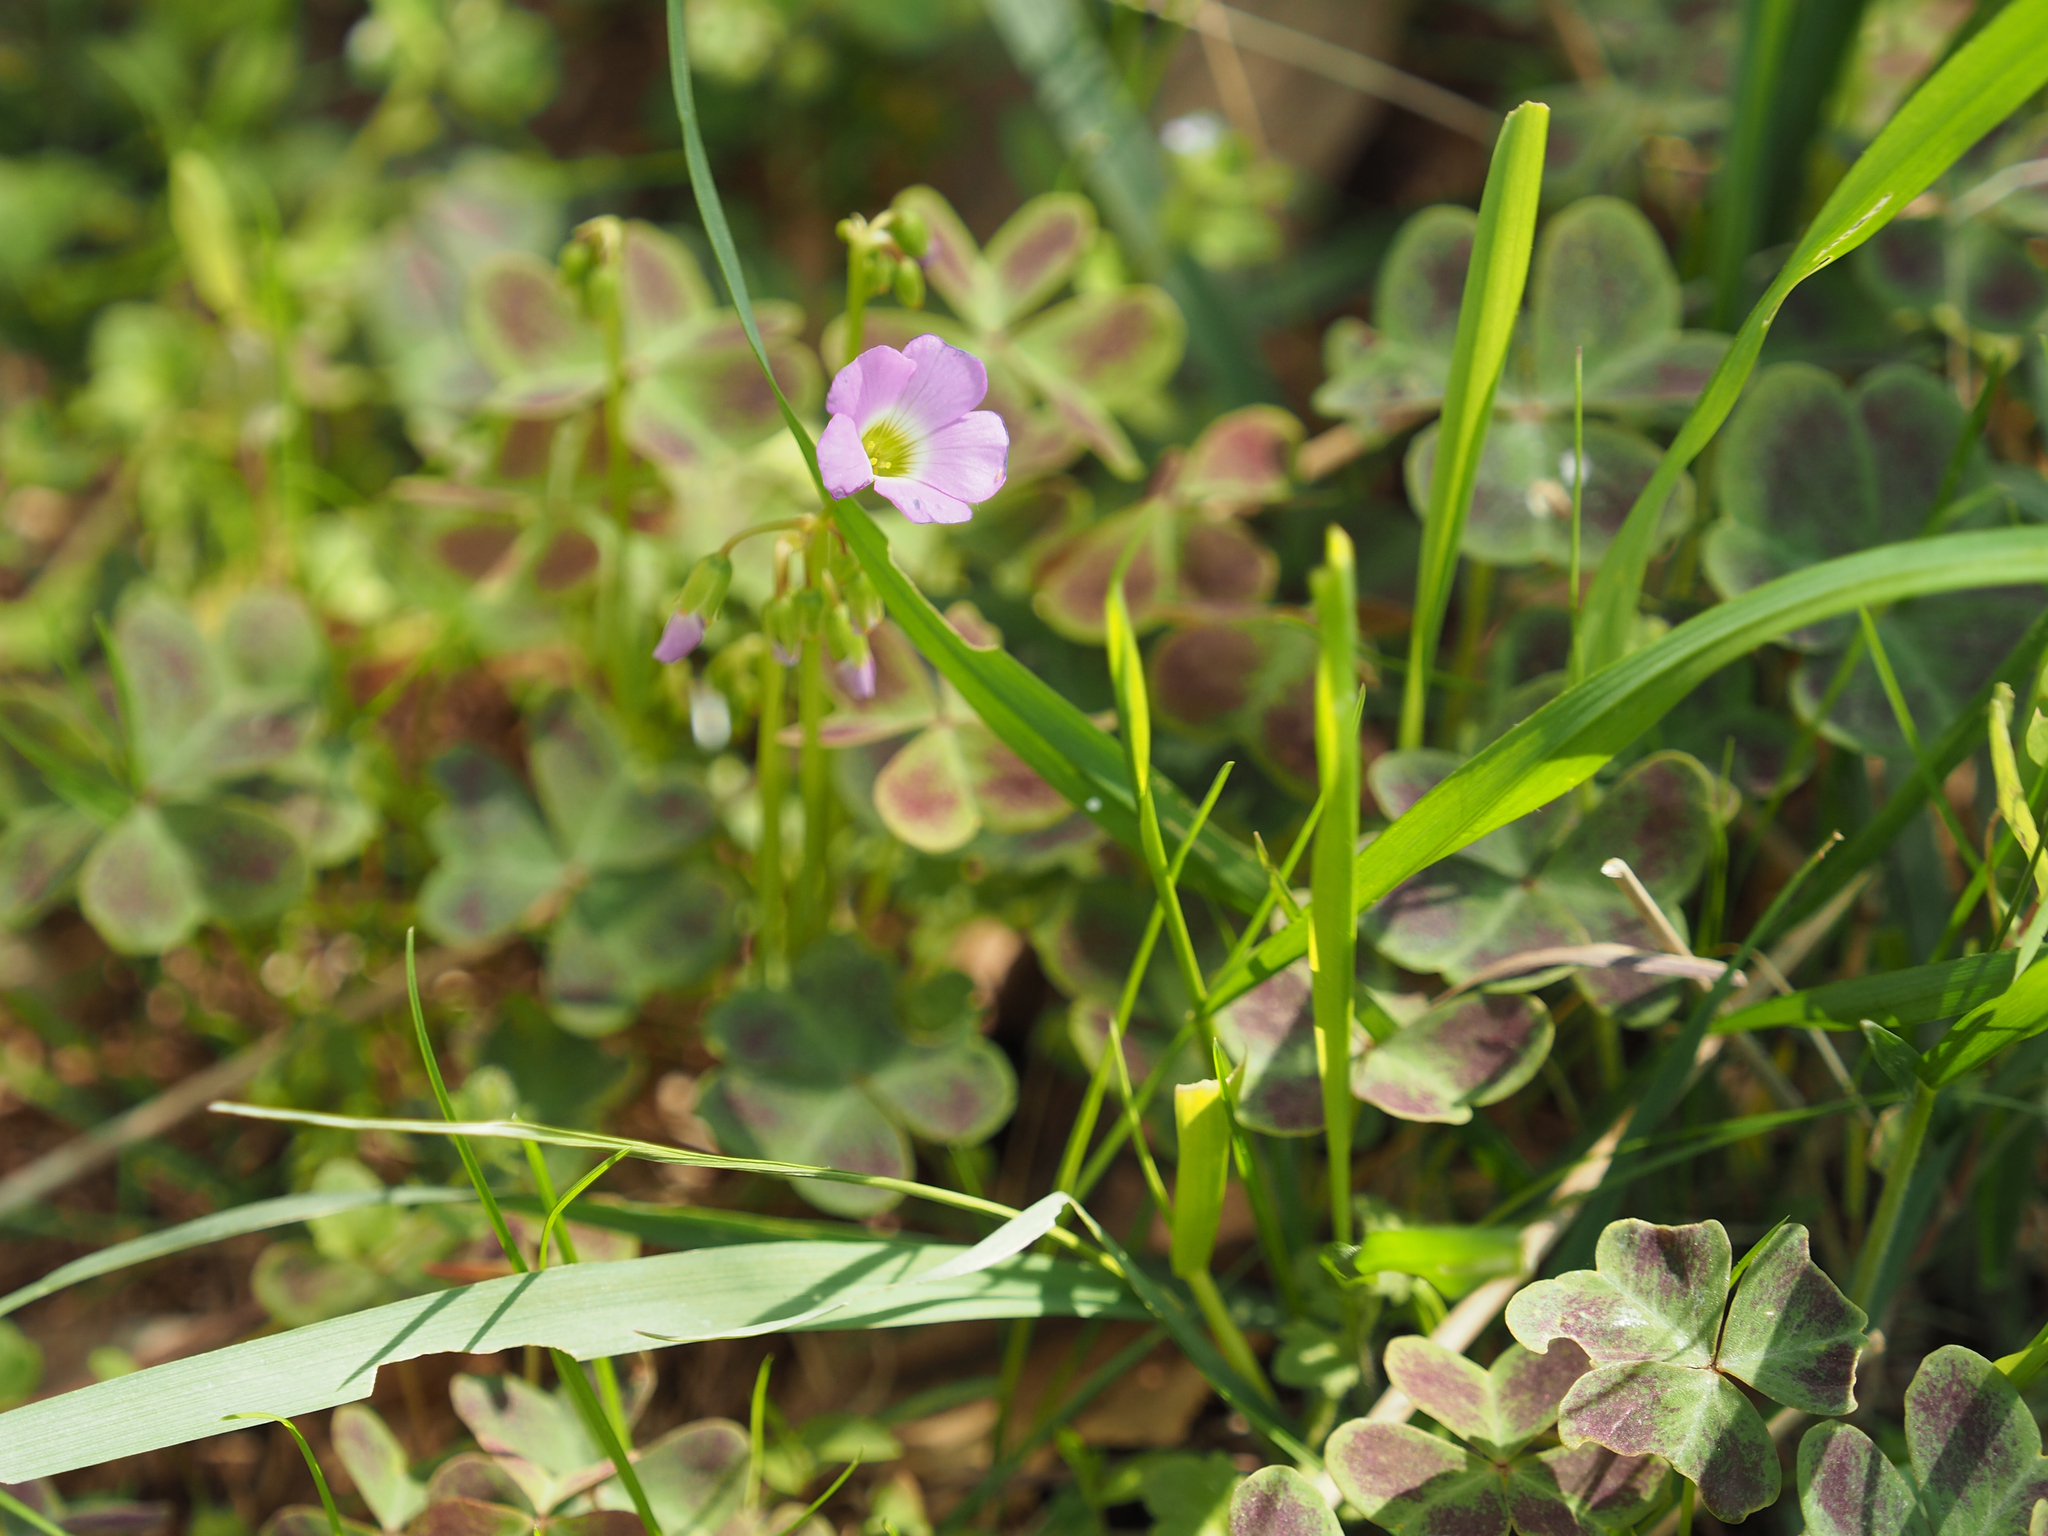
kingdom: Plantae
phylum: Tracheophyta
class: Magnoliopsida
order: Oxalidales
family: Oxalidaceae
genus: Oxalis
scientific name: Oxalis violacea
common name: Violet wood-sorrel
